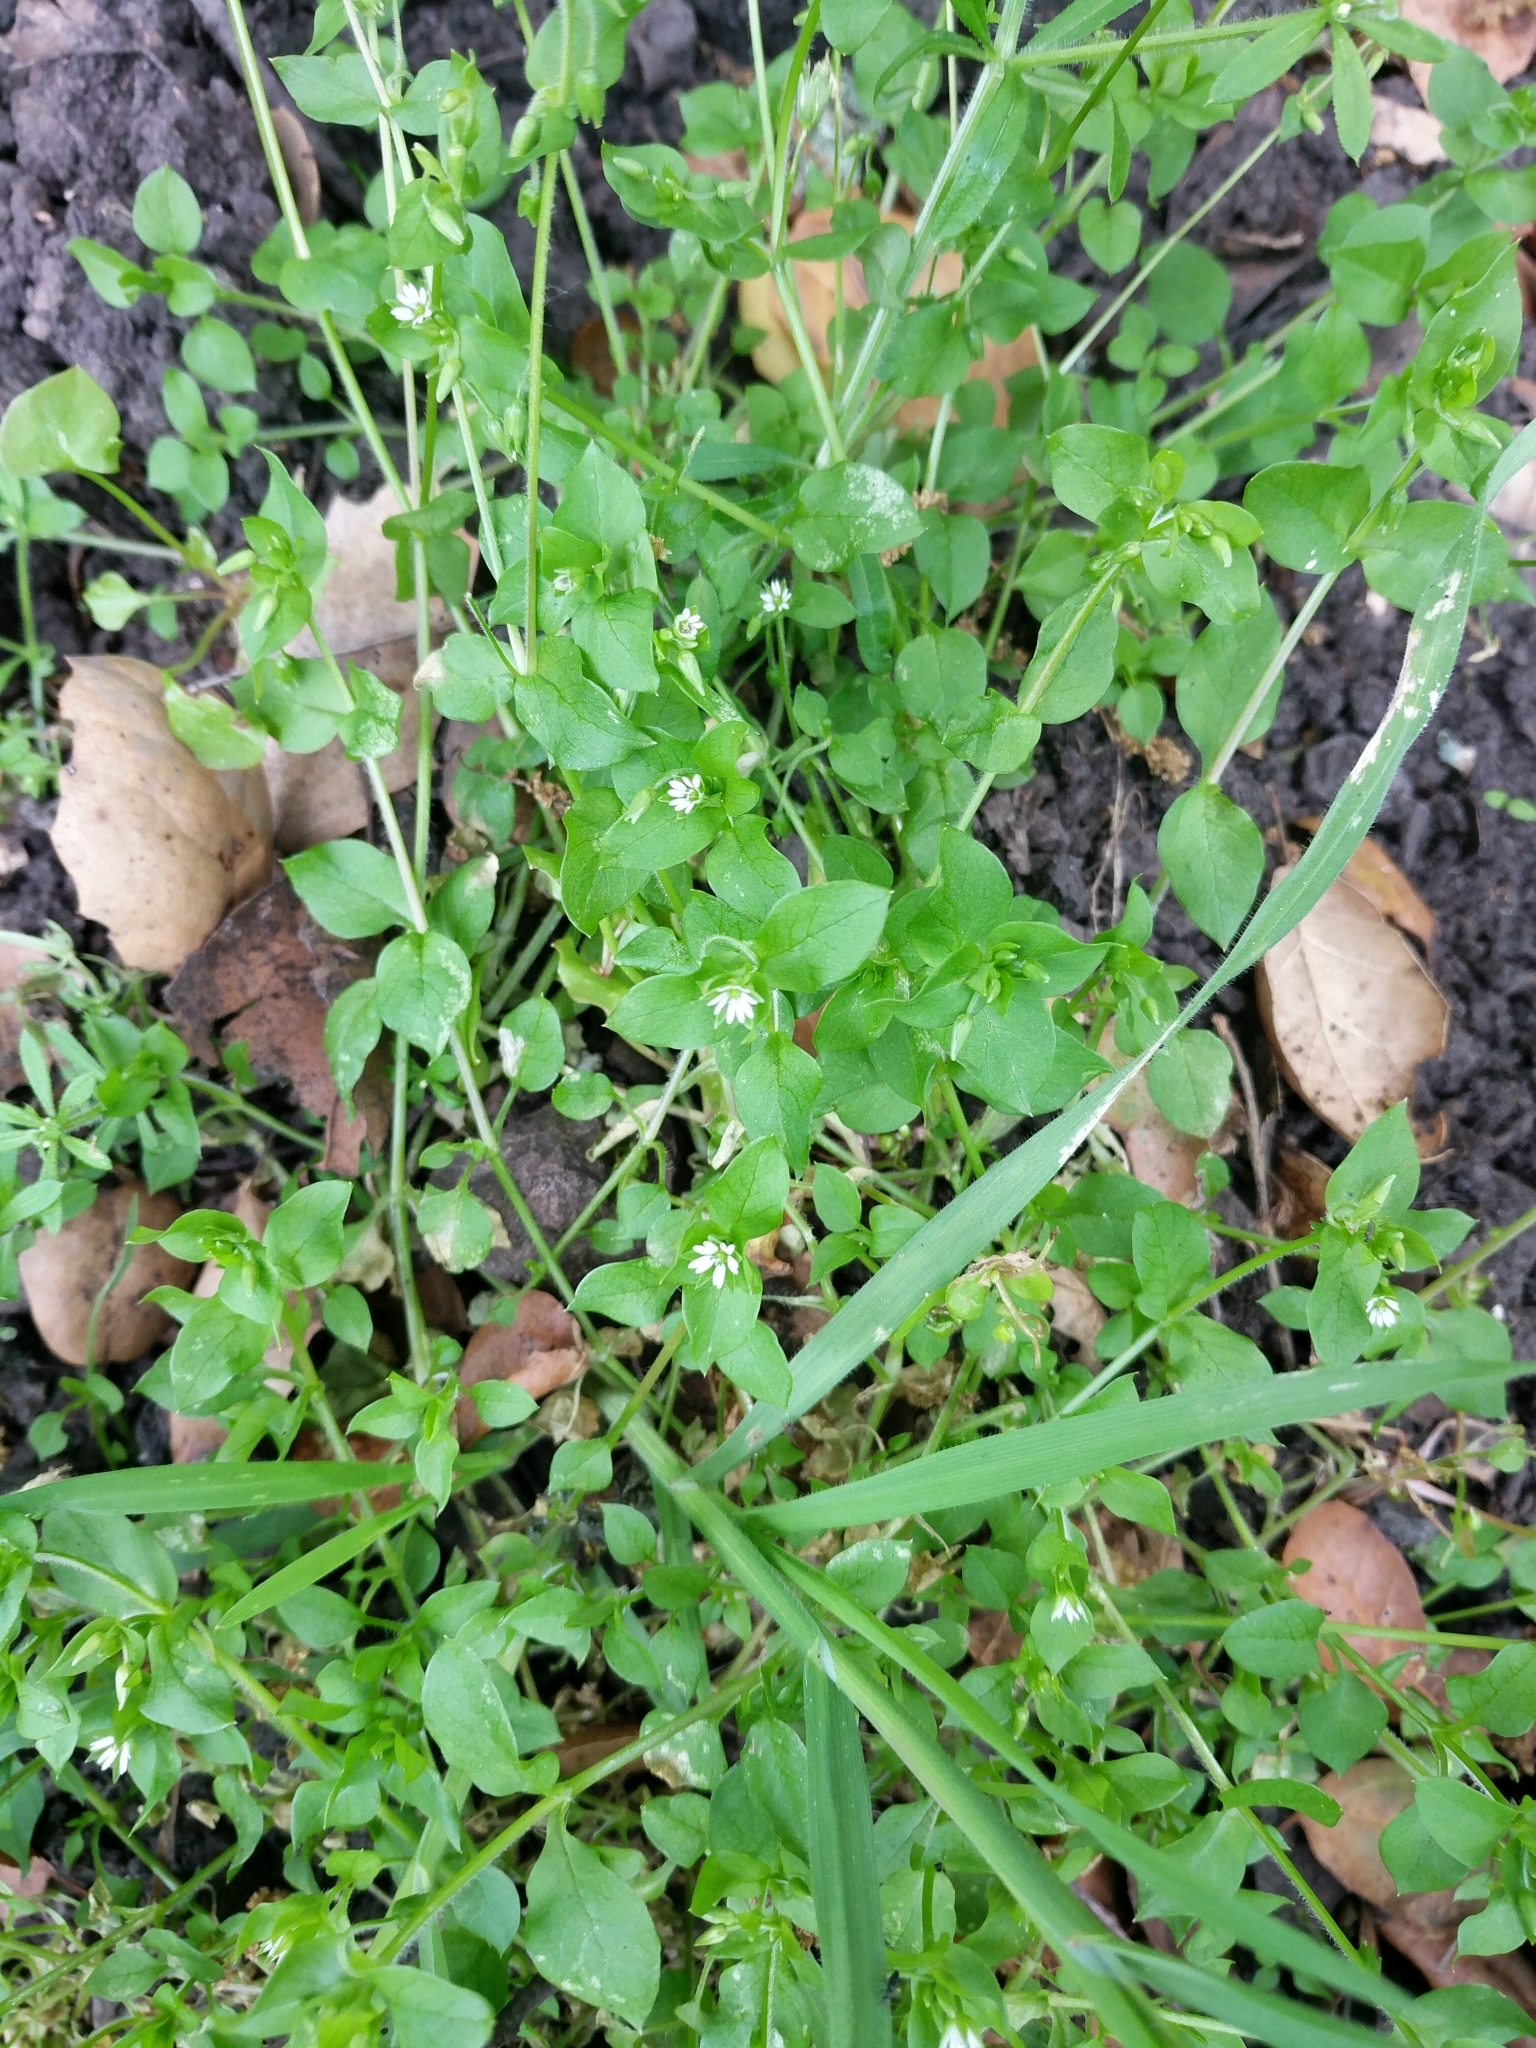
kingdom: Plantae
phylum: Tracheophyta
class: Magnoliopsida
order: Caryophyllales
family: Caryophyllaceae
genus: Stellaria
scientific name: Stellaria media
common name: Common chickweed
